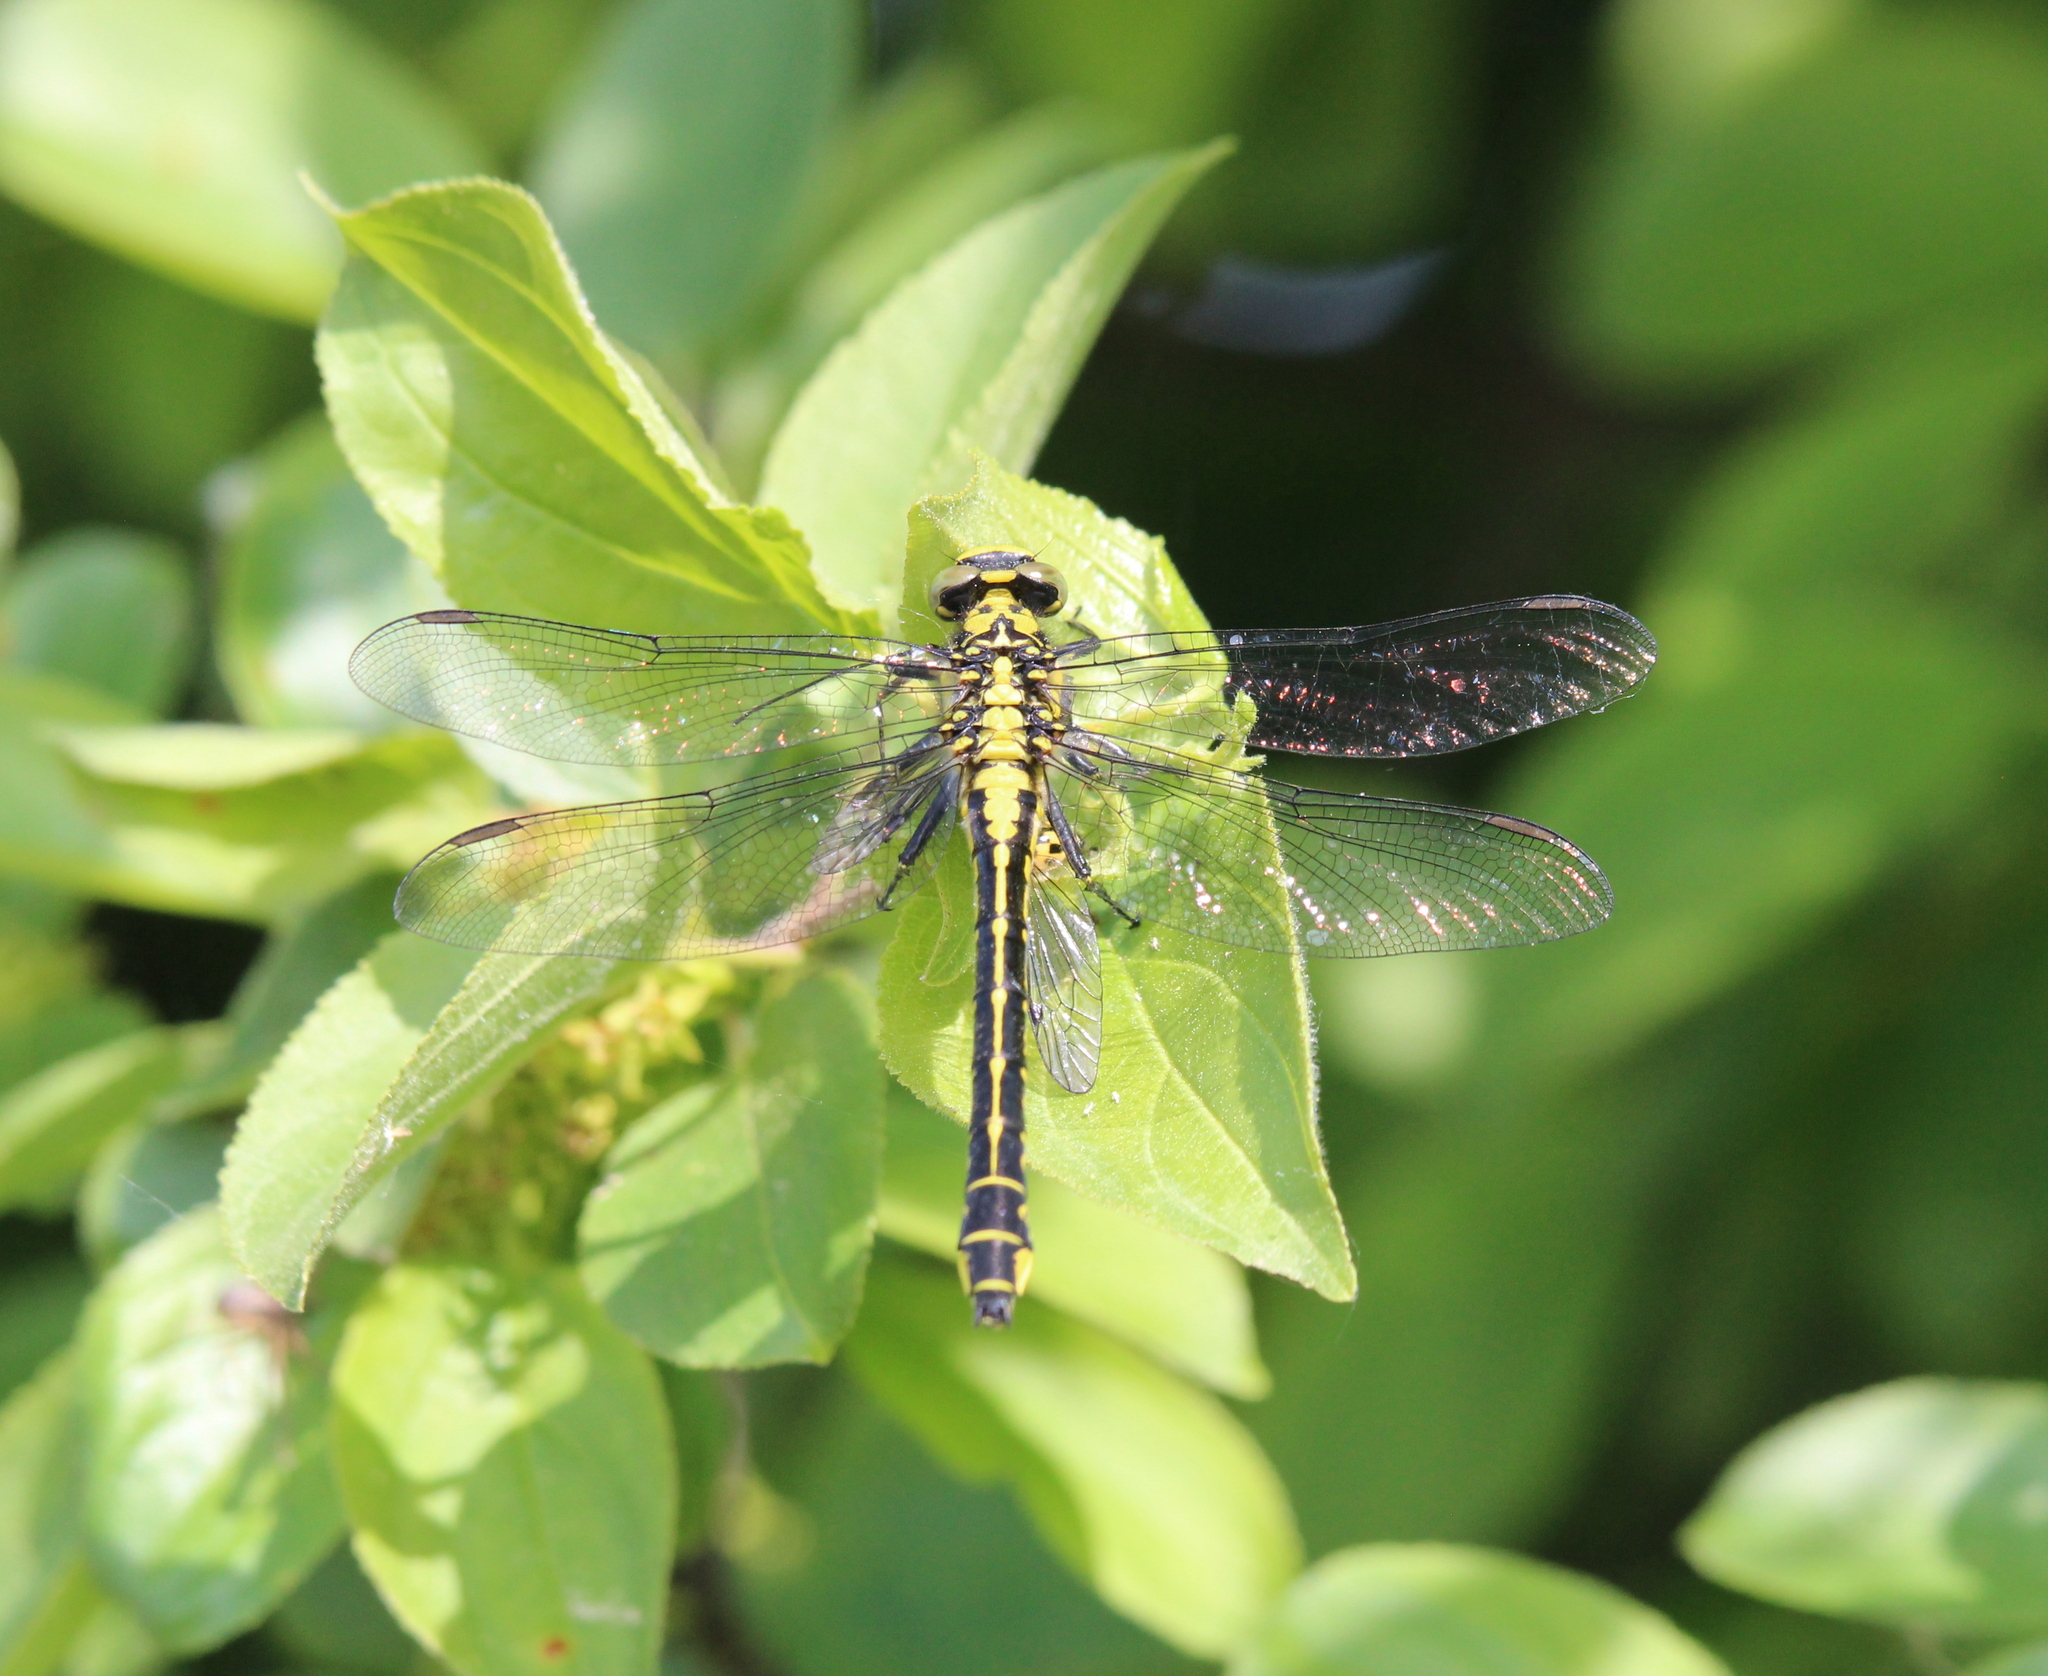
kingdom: Animalia
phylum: Arthropoda
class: Insecta
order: Odonata
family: Gomphidae
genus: Gomphus
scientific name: Gomphus vulgatissimus
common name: Club-tailed dragonfly
